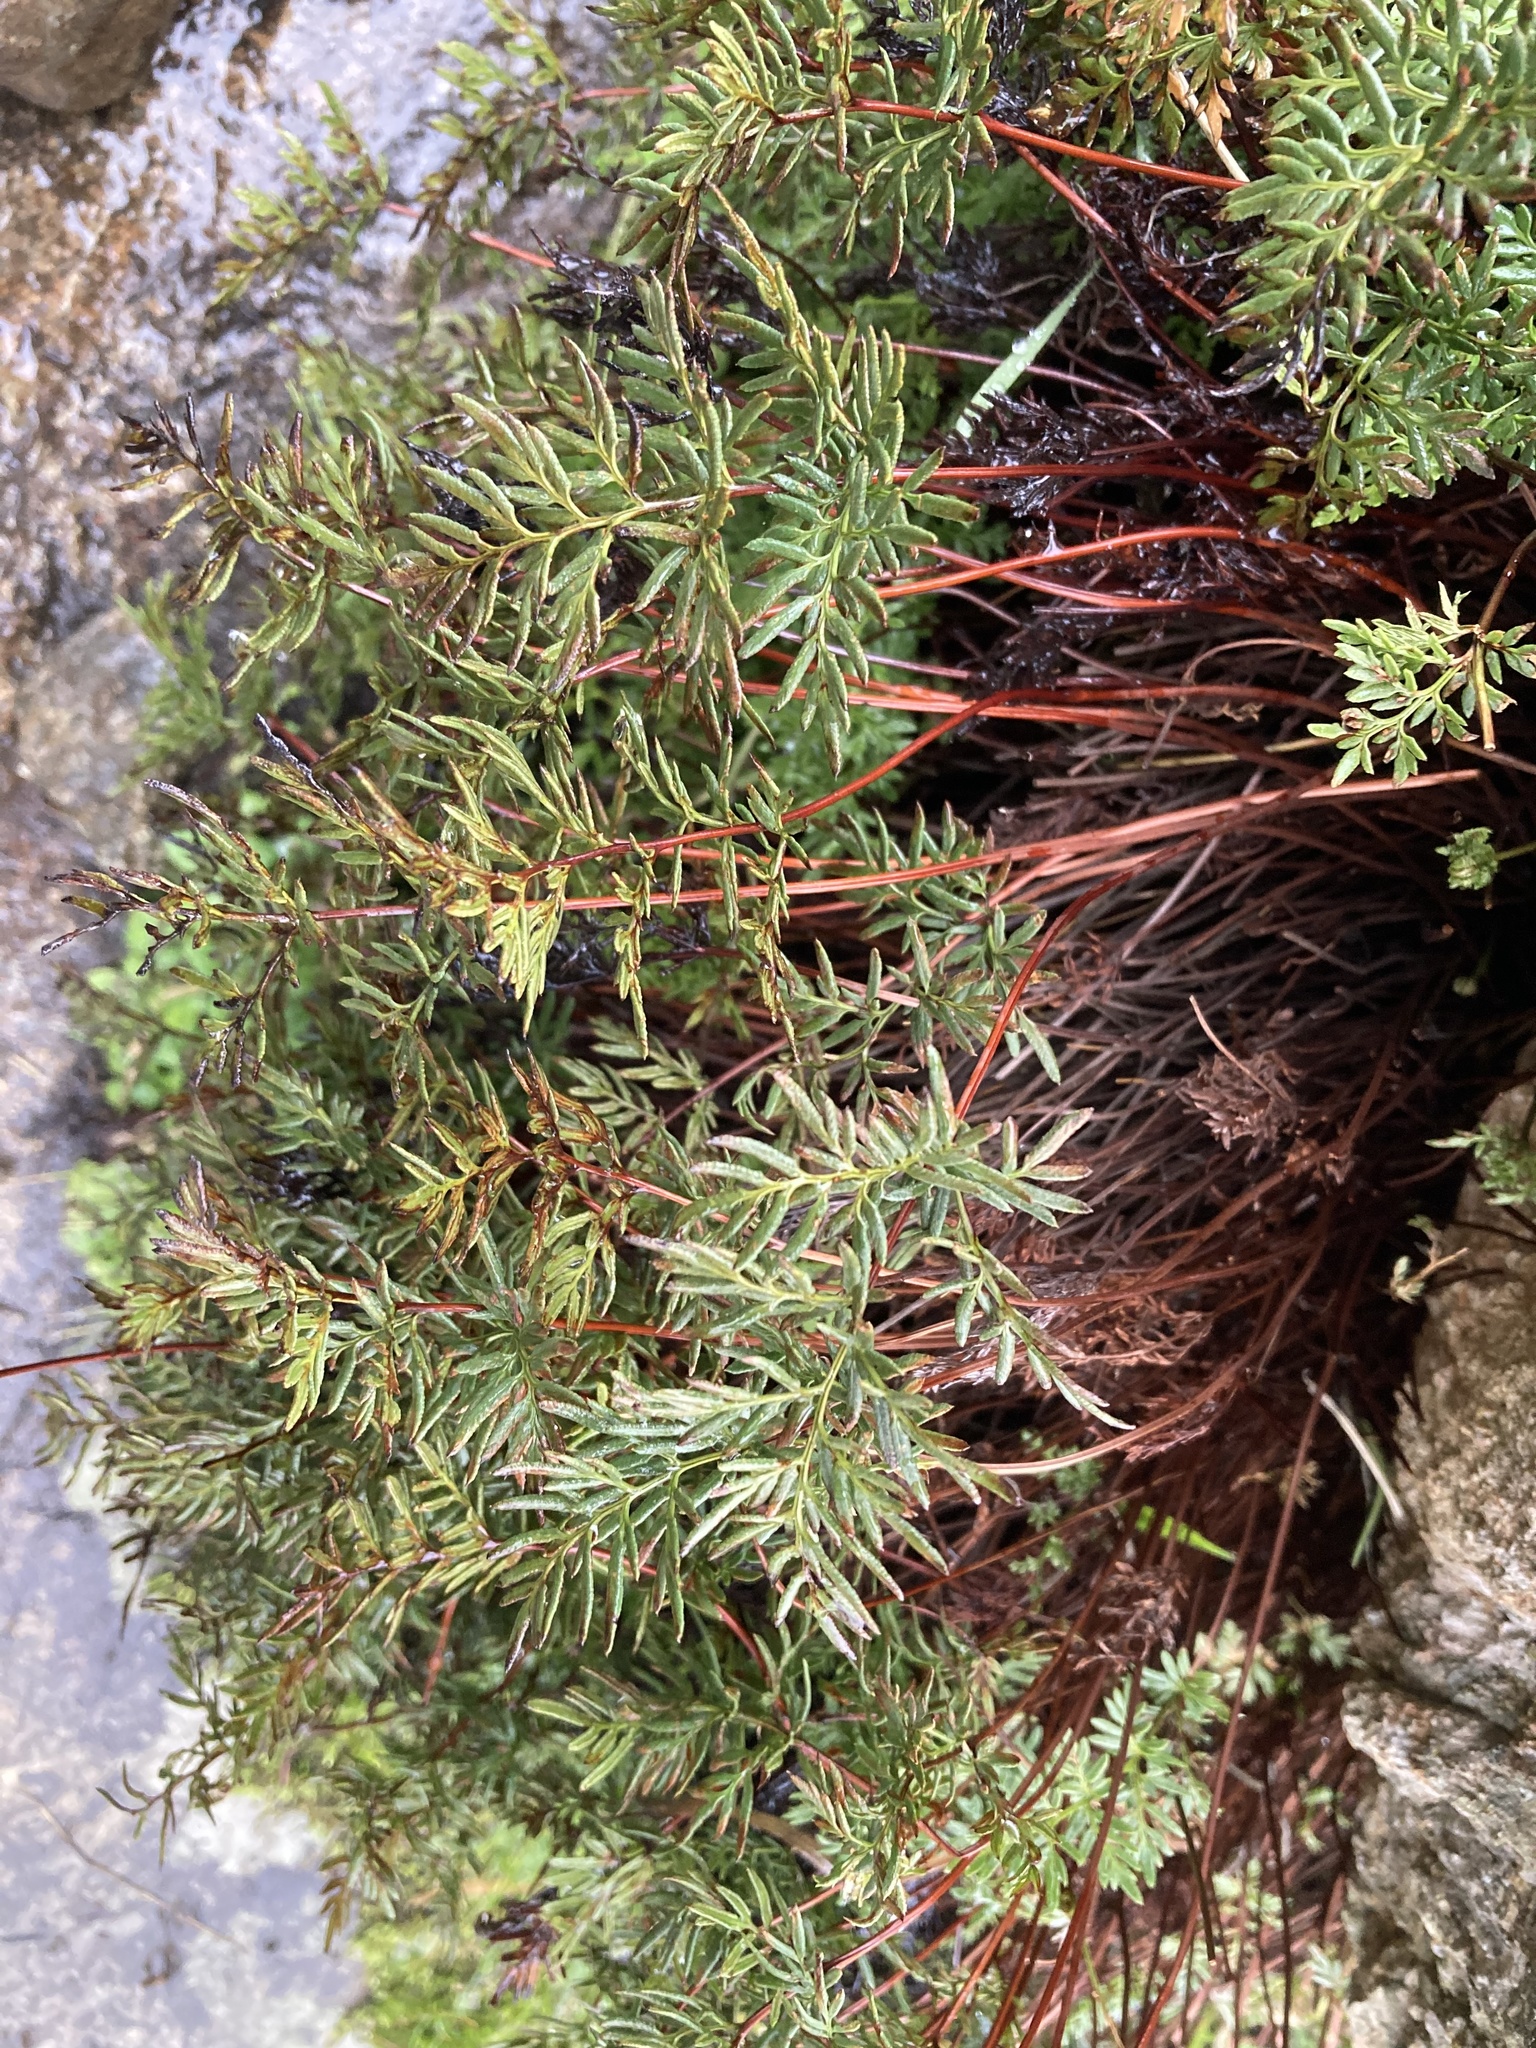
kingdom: Plantae
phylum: Tracheophyta
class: Polypodiopsida
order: Polypodiales
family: Pteridaceae
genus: Aspidotis
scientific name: Aspidotis densa
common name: Indian's dream
